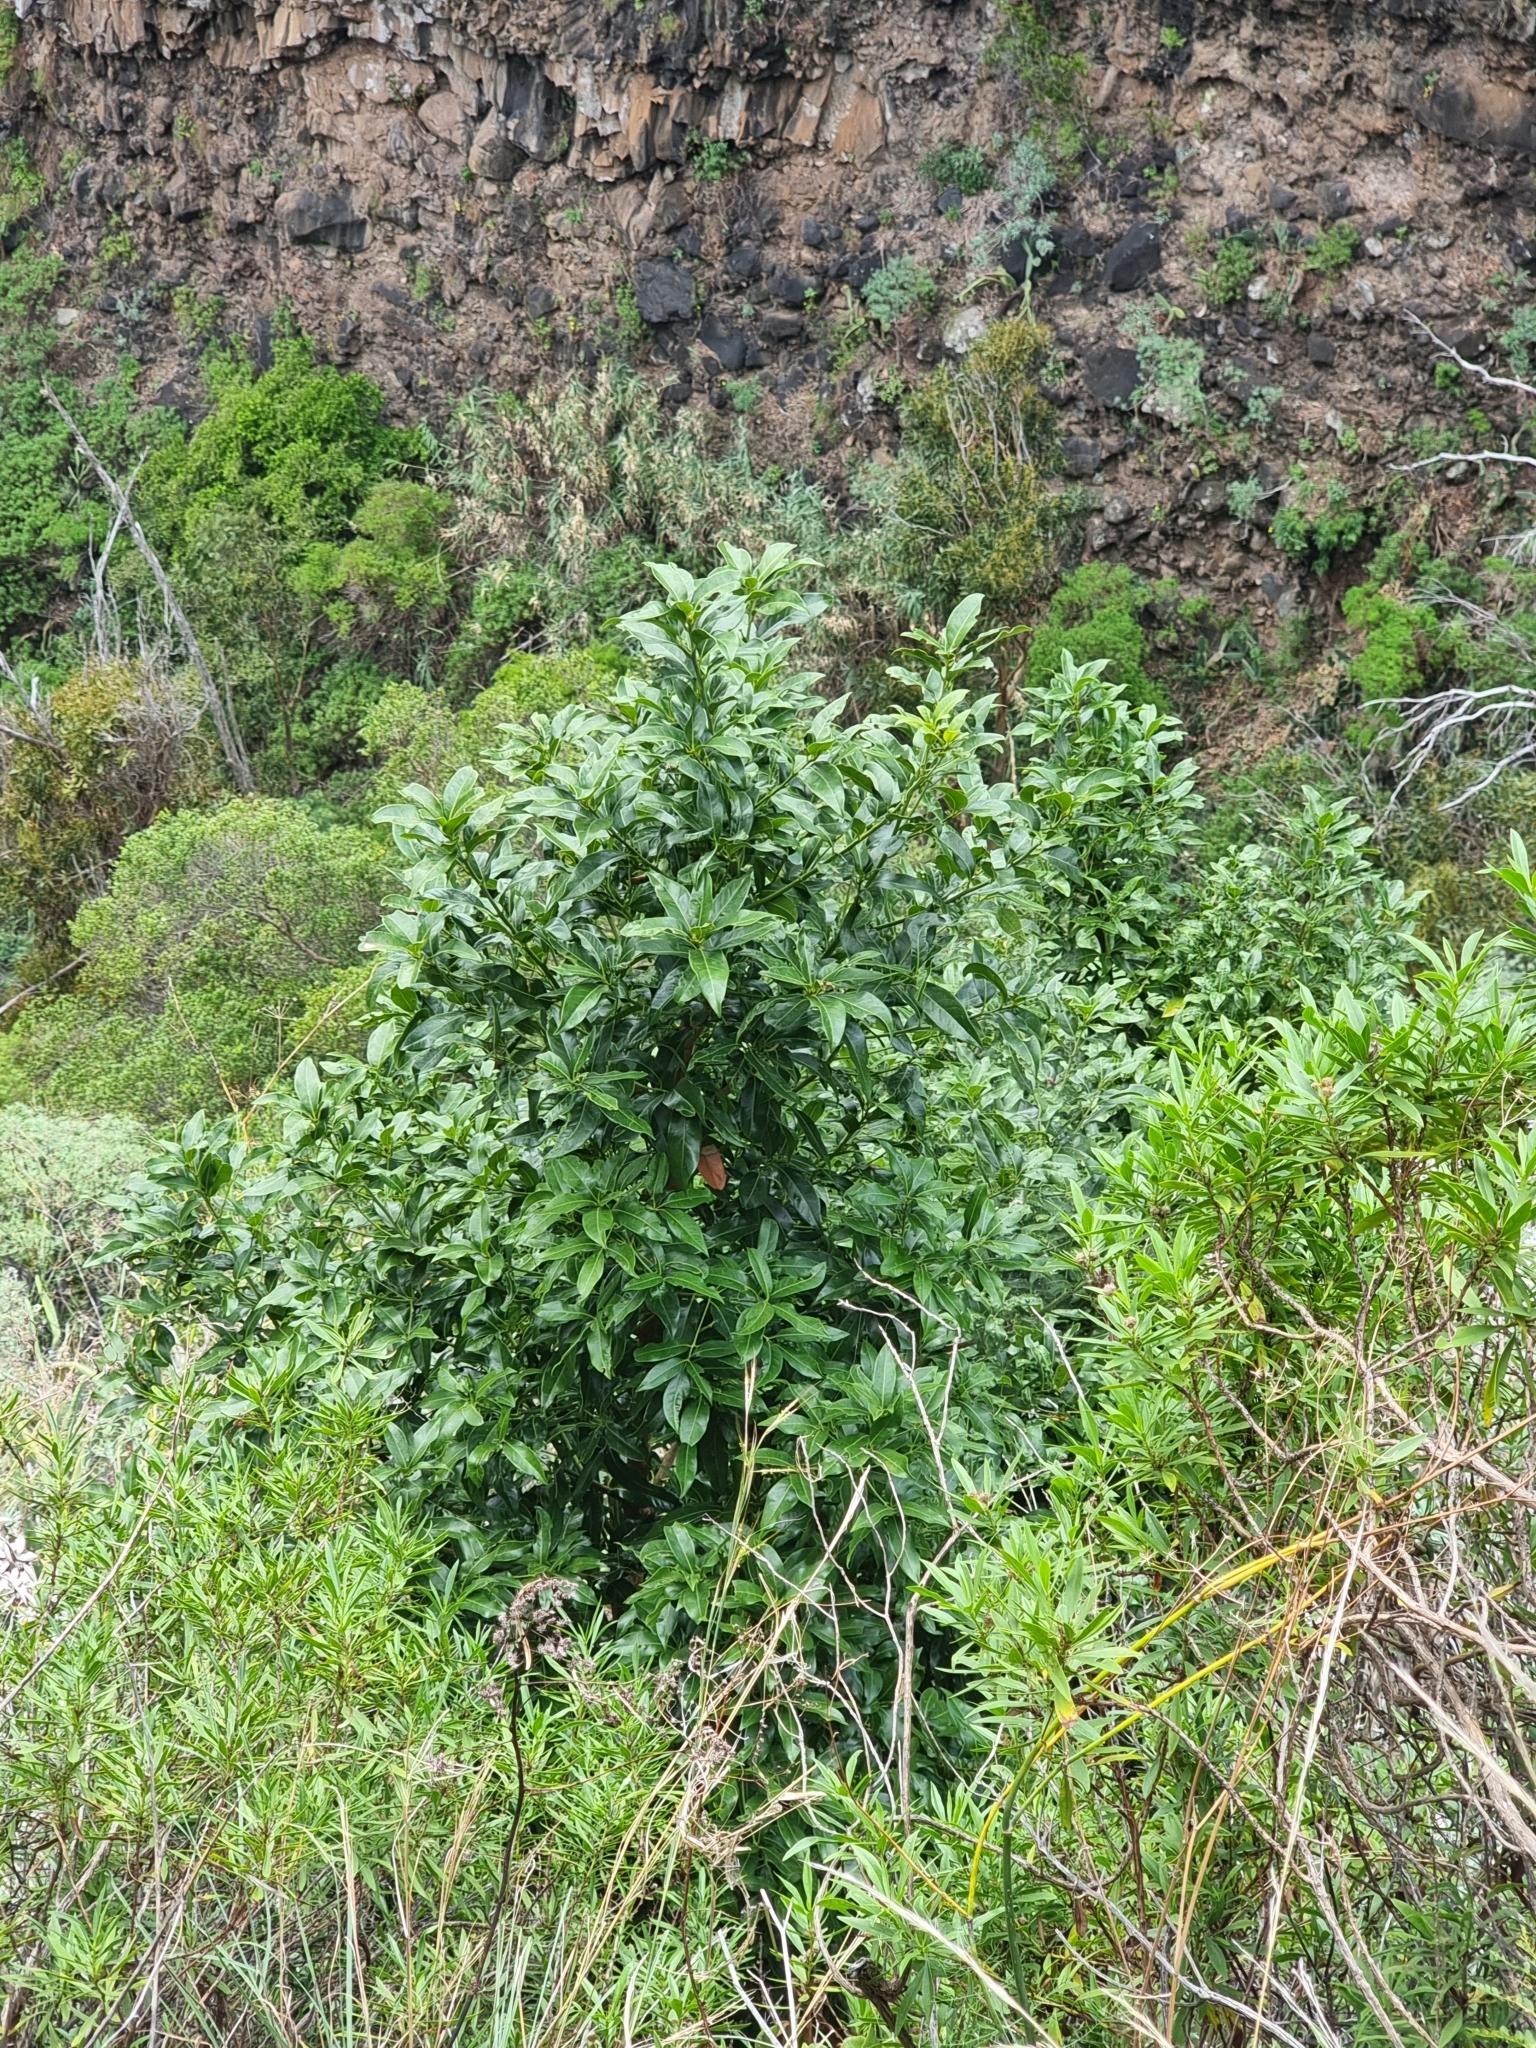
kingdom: Plantae
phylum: Tracheophyta
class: Magnoliopsida
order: Laurales
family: Lauraceae
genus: Apollonias
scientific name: Apollonias barbujana
